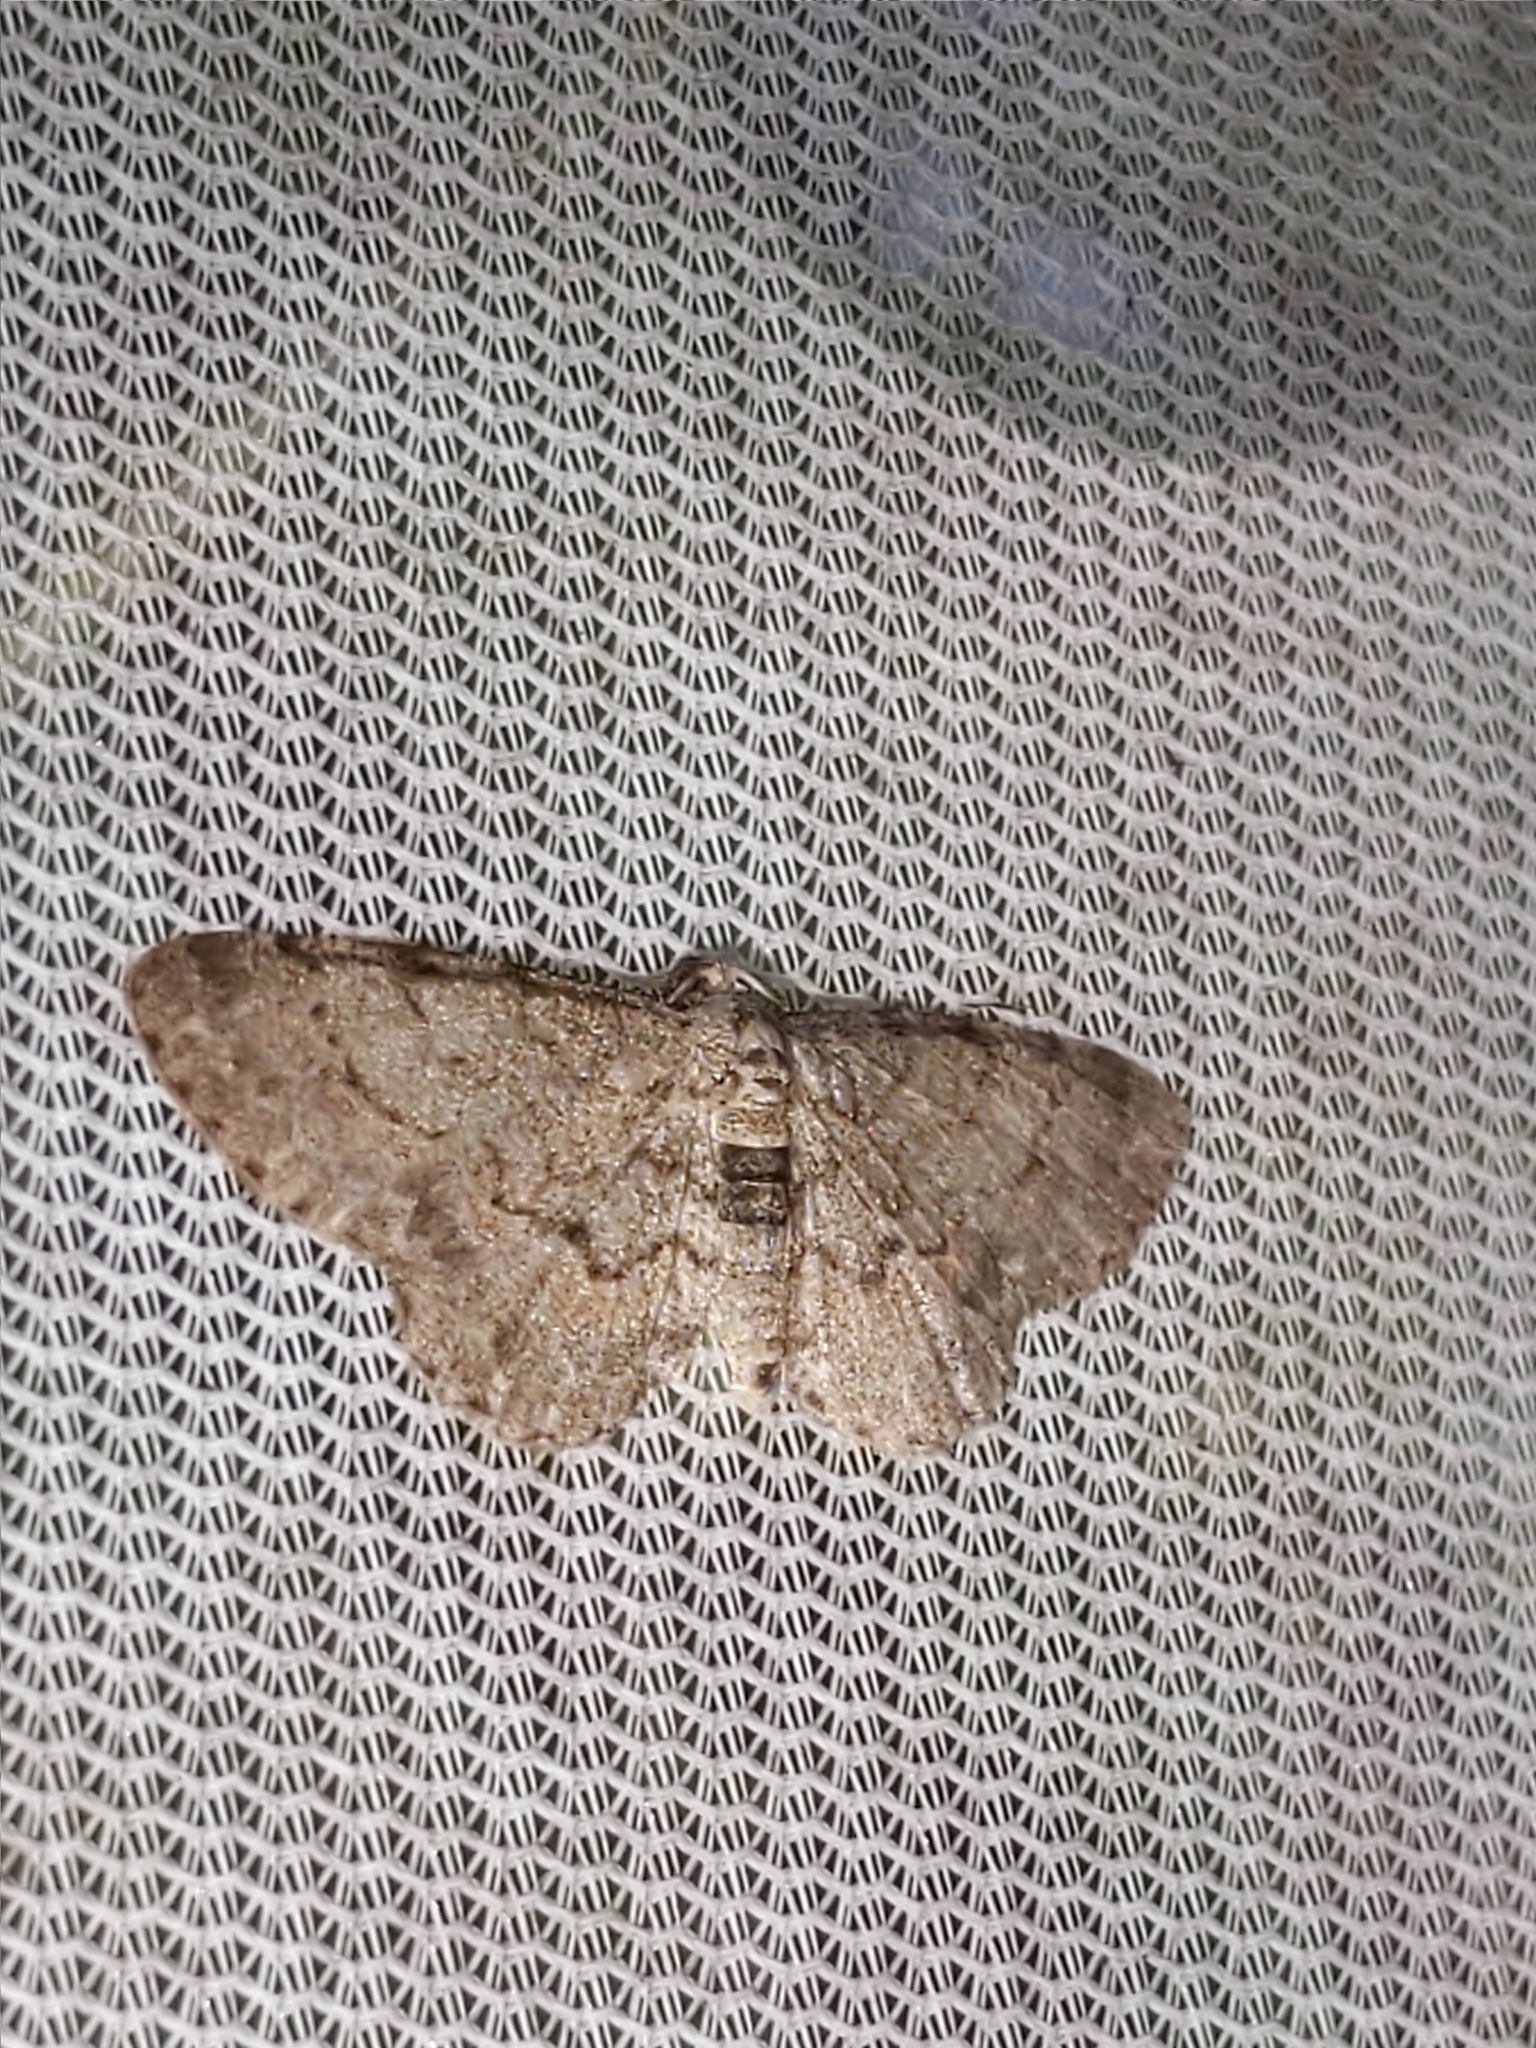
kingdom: Animalia
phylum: Arthropoda
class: Insecta
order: Lepidoptera
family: Geometridae
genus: Glenoides
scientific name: Glenoides texanaria
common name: Texas gray
